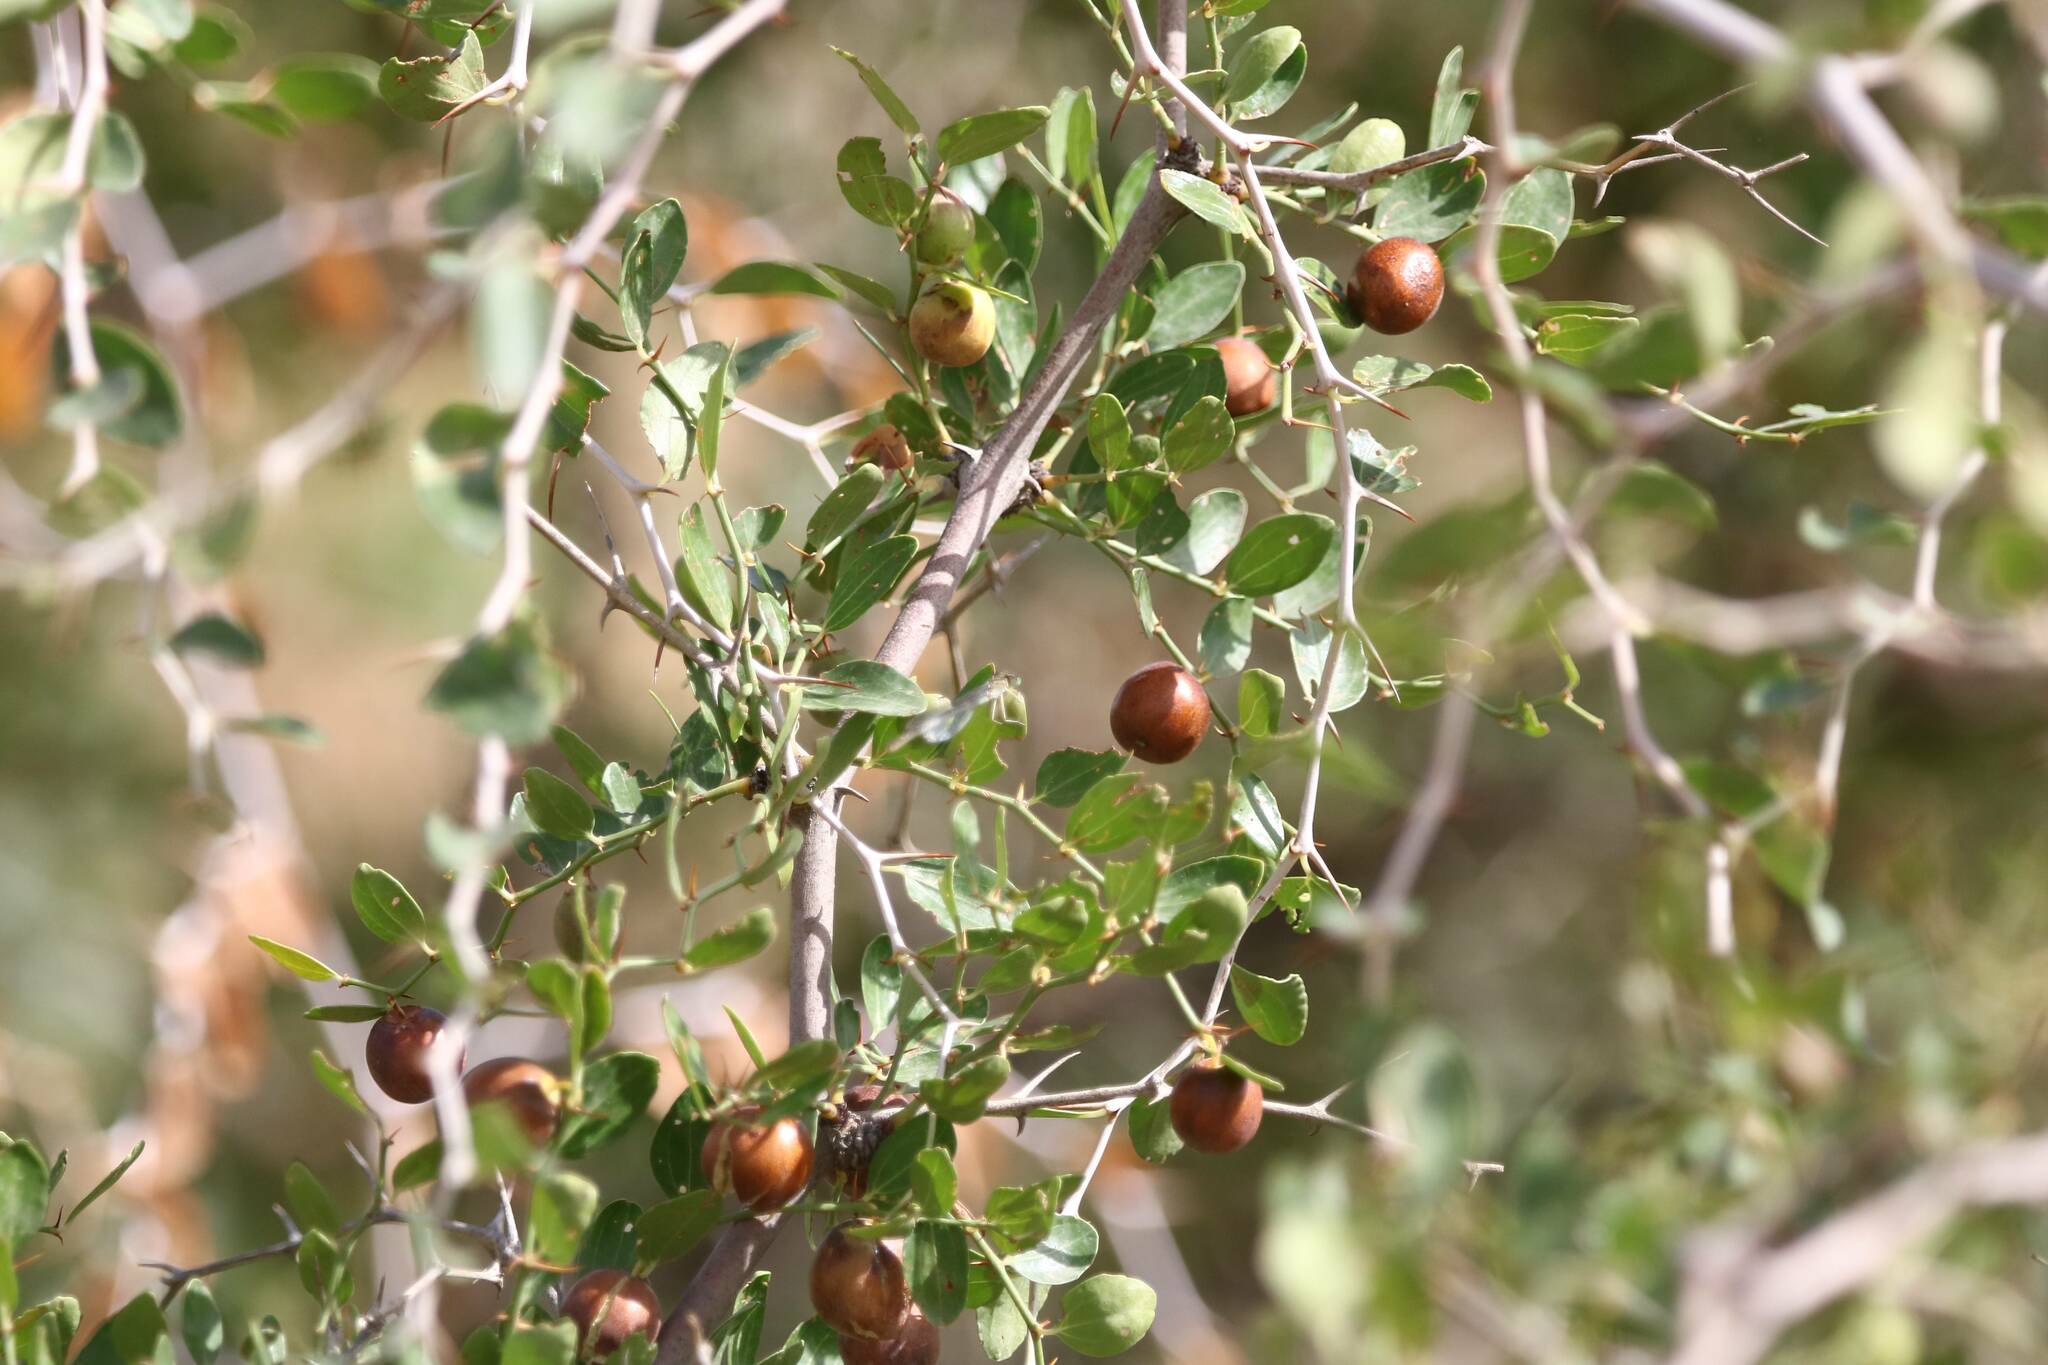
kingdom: Plantae
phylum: Tracheophyta
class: Magnoliopsida
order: Rosales
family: Rhamnaceae
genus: Ziziphus
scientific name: Ziziphus lotus
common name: Lotus
